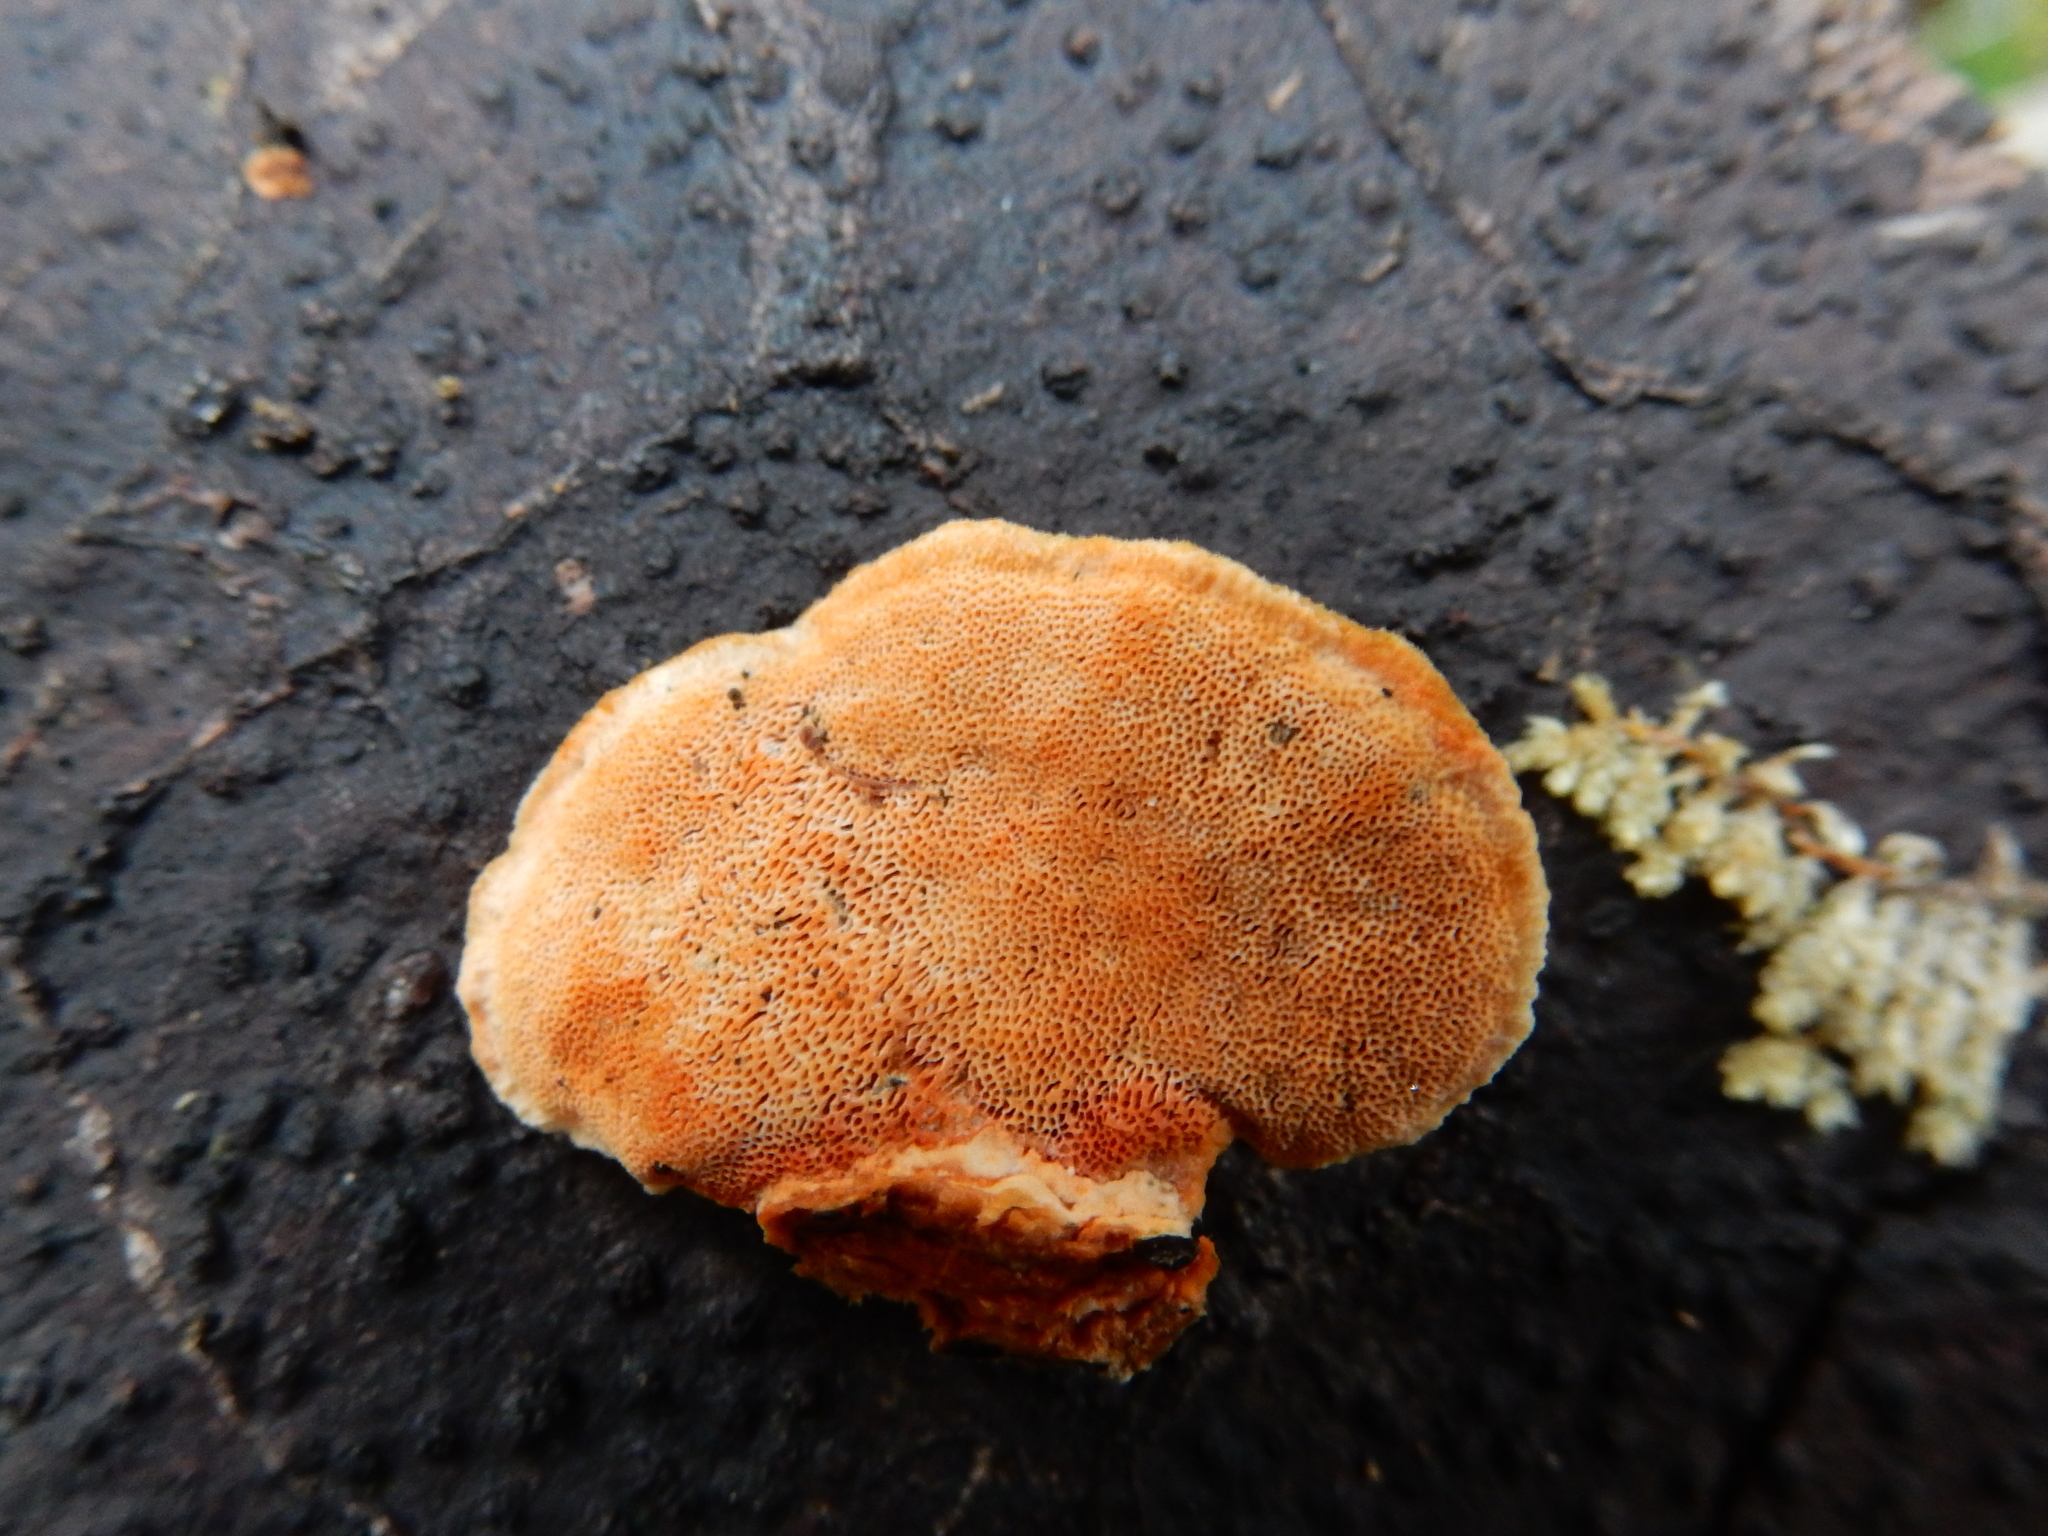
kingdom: Fungi
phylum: Basidiomycota
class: Agaricomycetes
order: Polyporales
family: Polyporaceae
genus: Trametes
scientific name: Trametes coccinea
